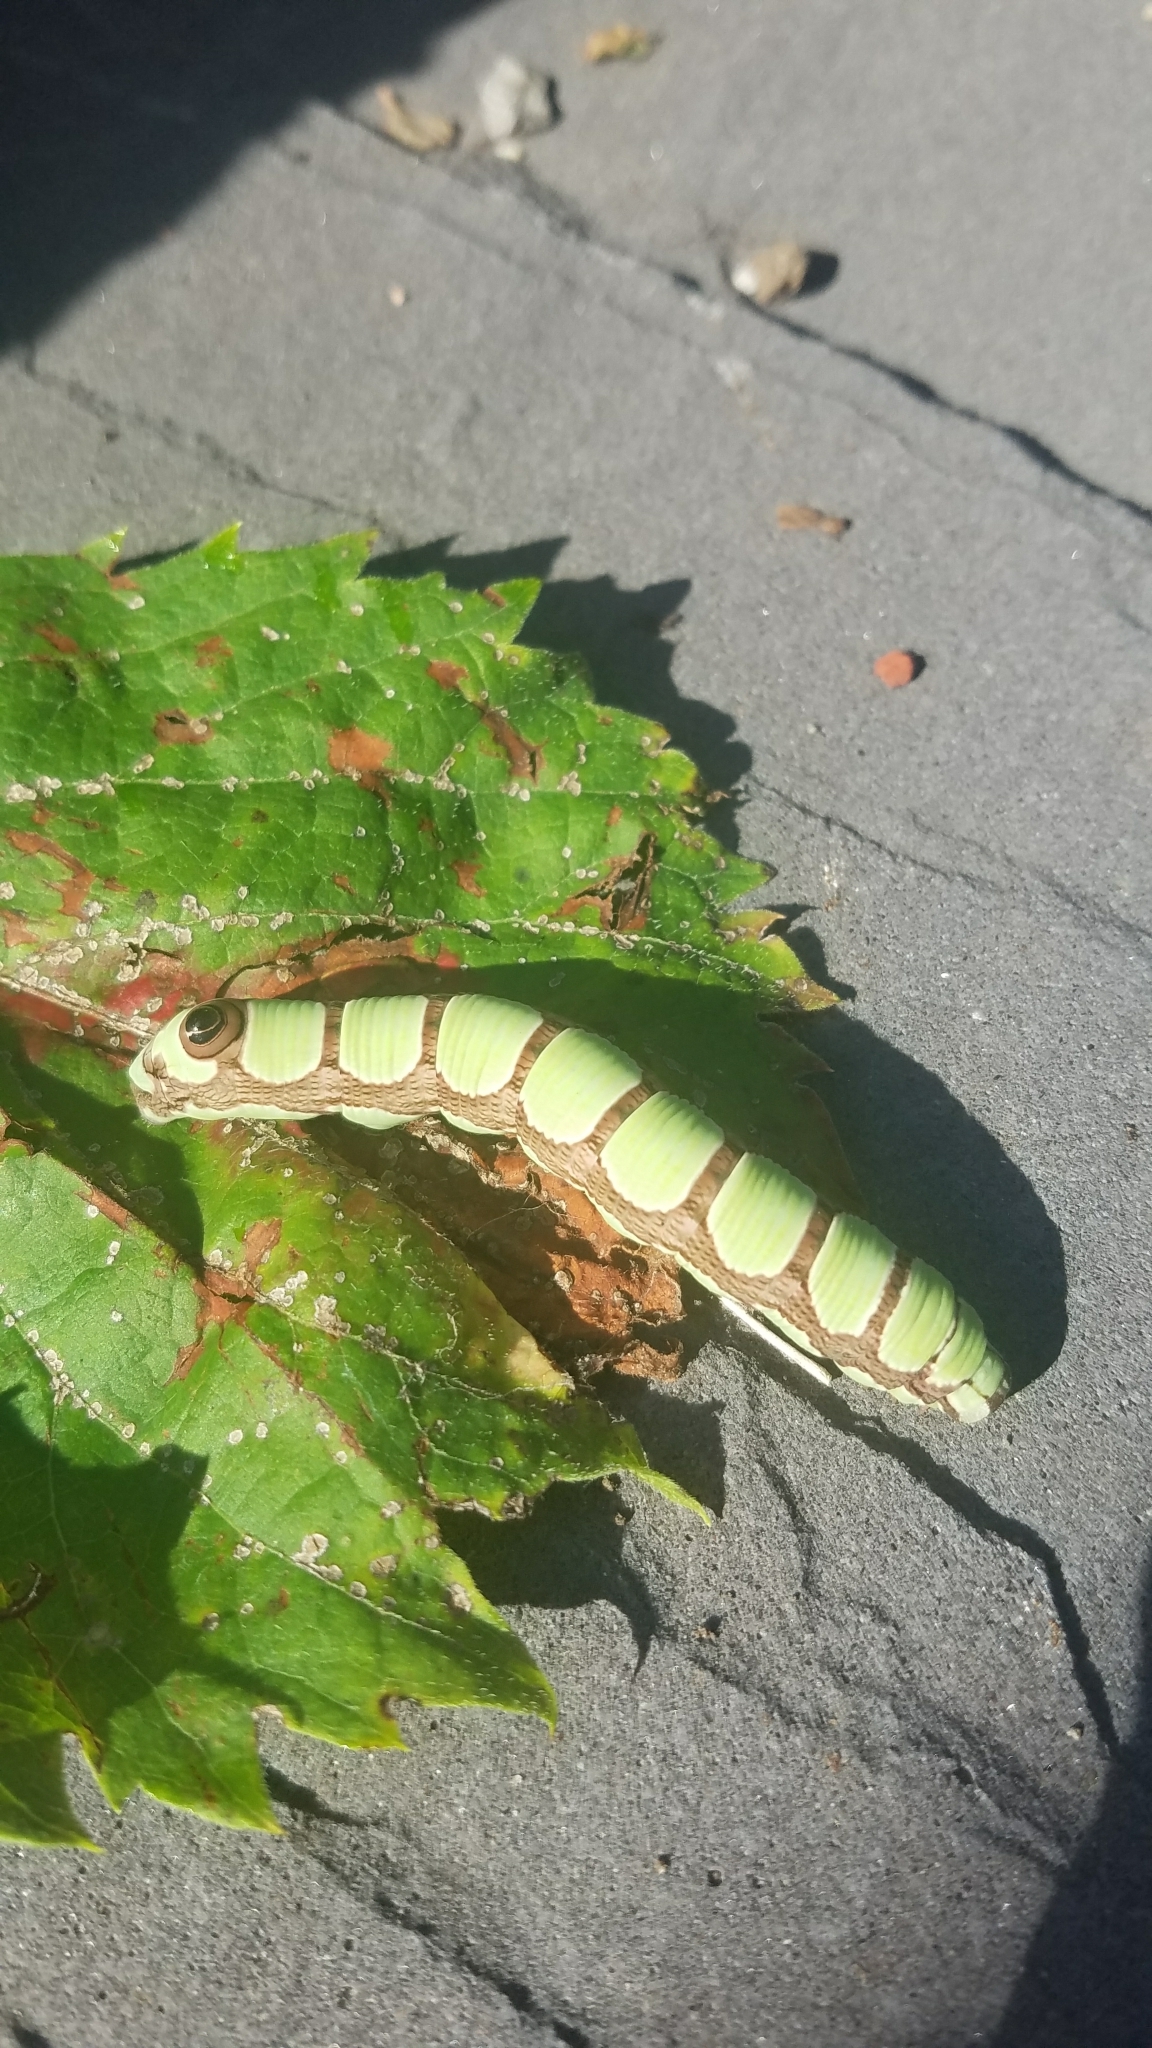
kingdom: Animalia
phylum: Arthropoda
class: Insecta
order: Lepidoptera
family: Sphingidae
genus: Sphecodina
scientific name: Sphecodina abbottii
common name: Abbott's sphinx
